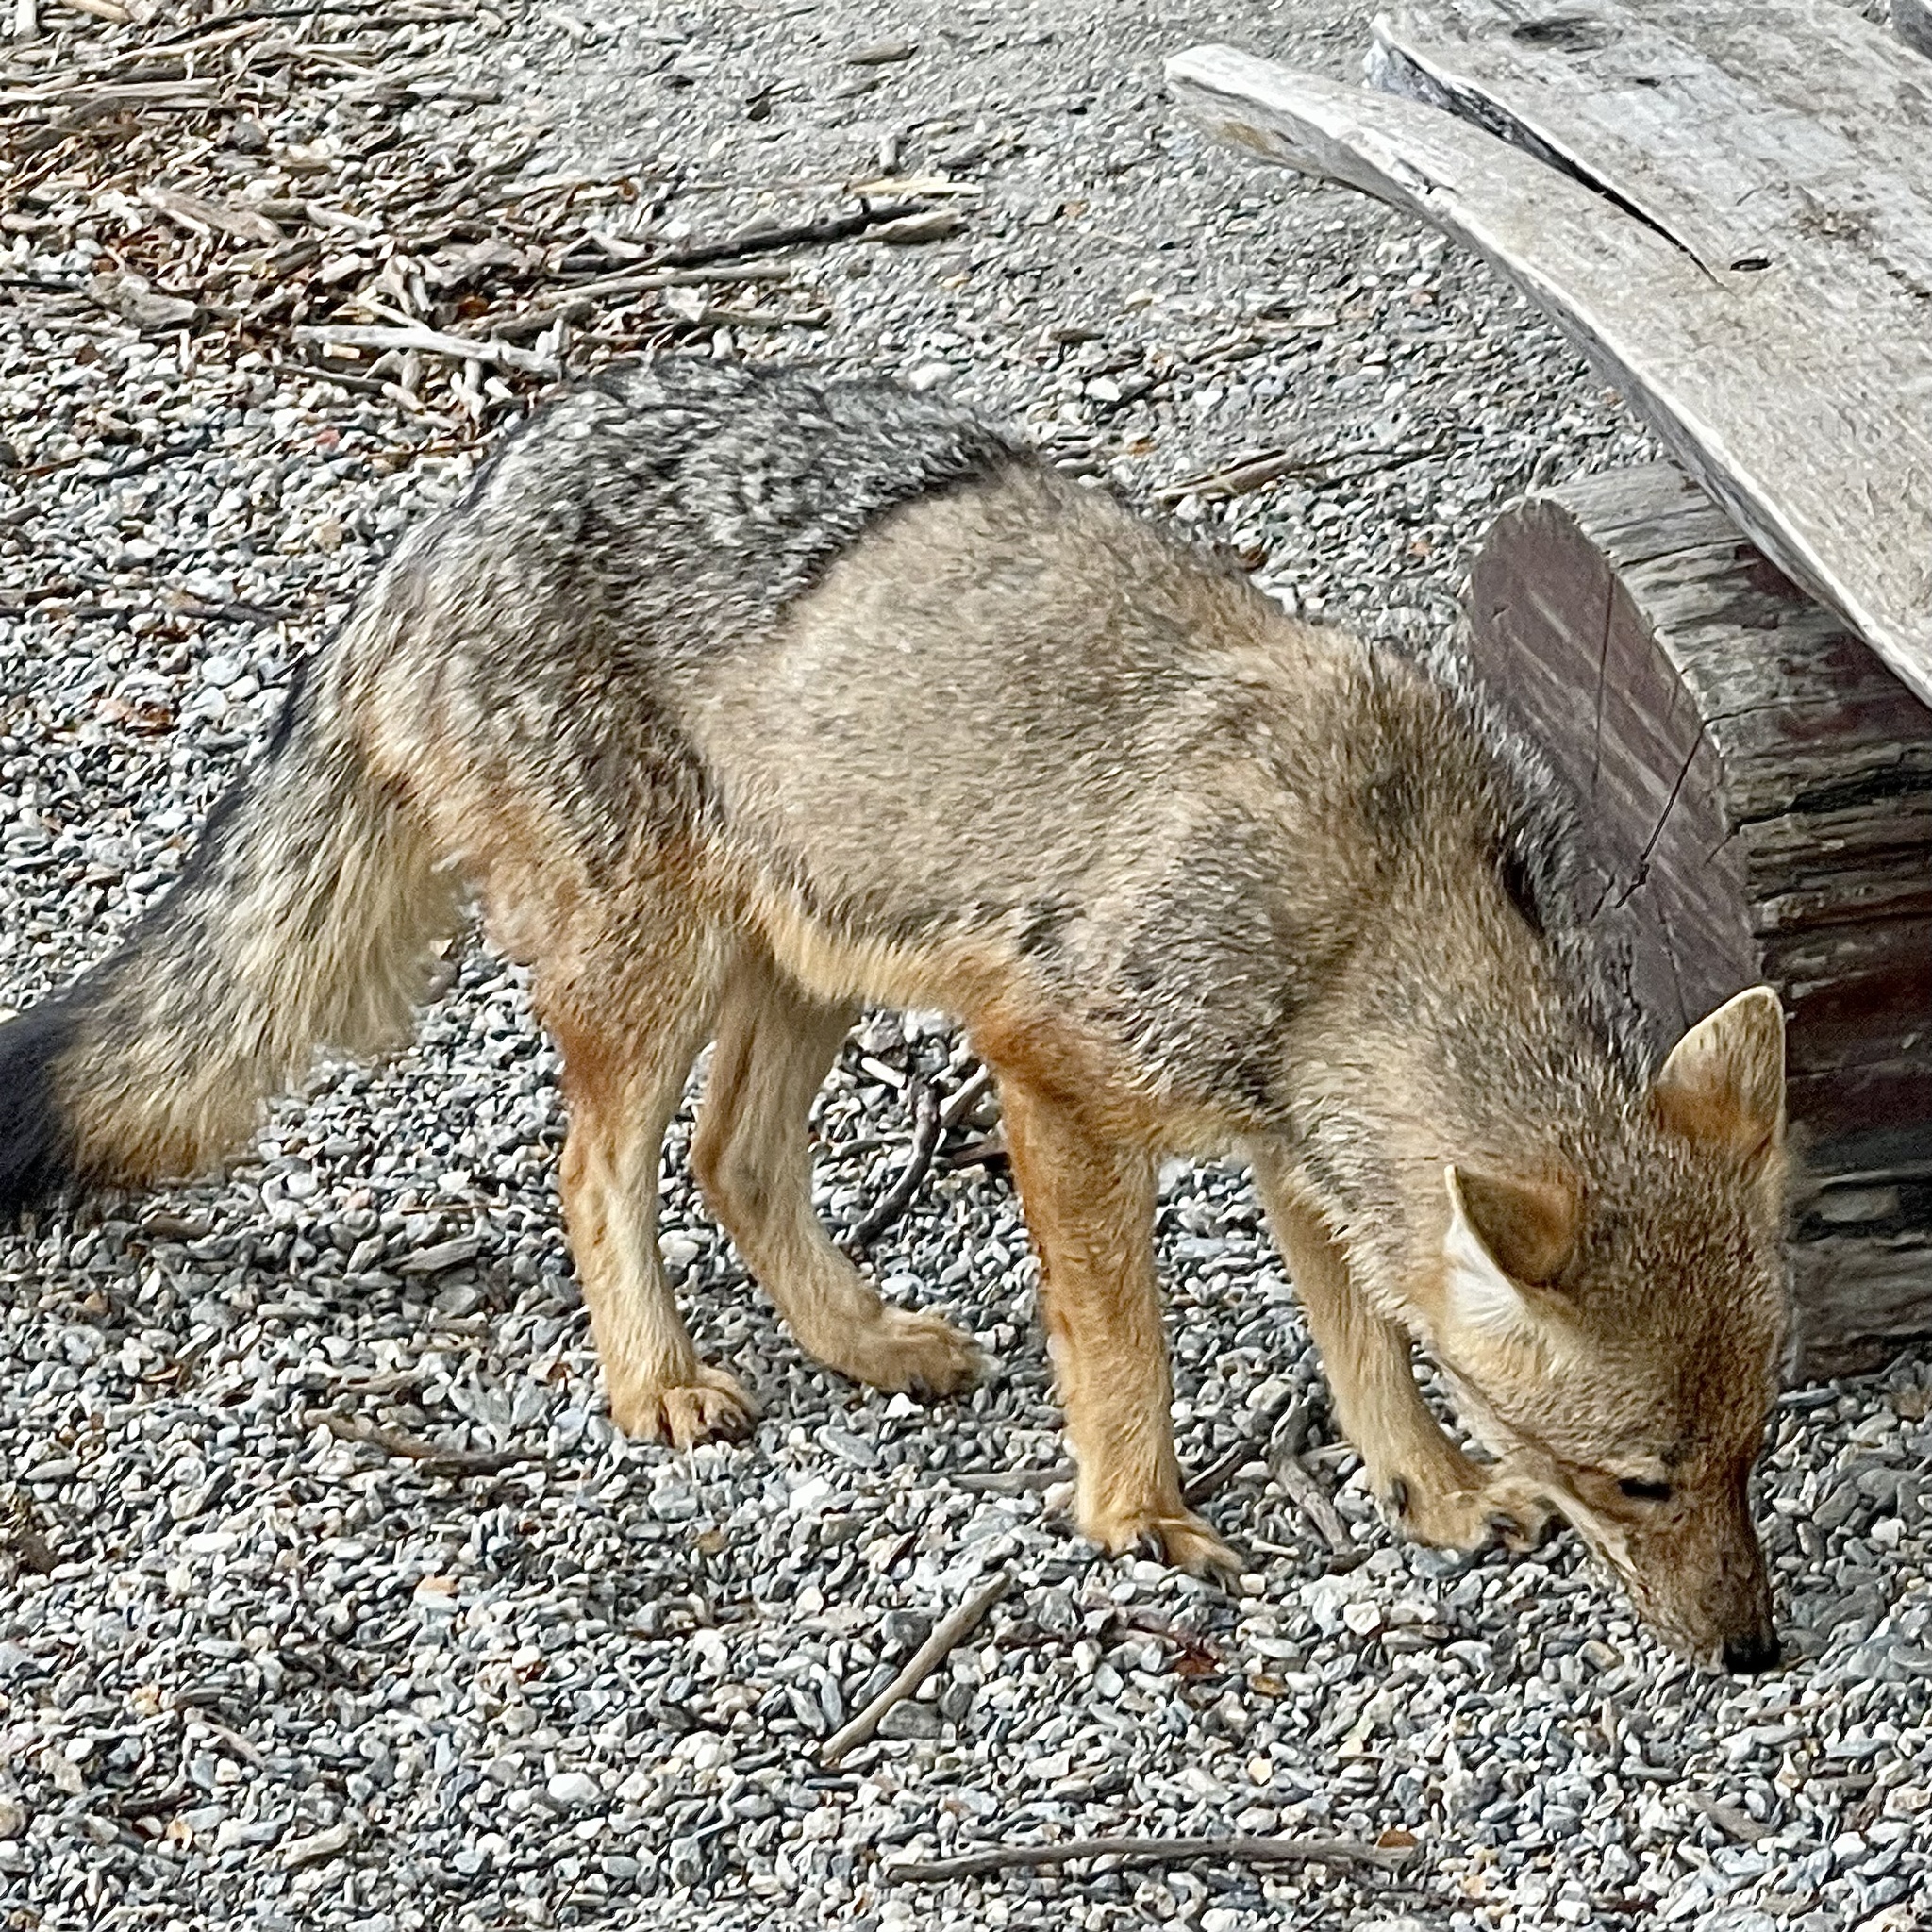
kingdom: Animalia
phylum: Chordata
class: Mammalia
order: Carnivora
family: Canidae
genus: Lycalopex
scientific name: Lycalopex culpaeus
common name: Culpeo
